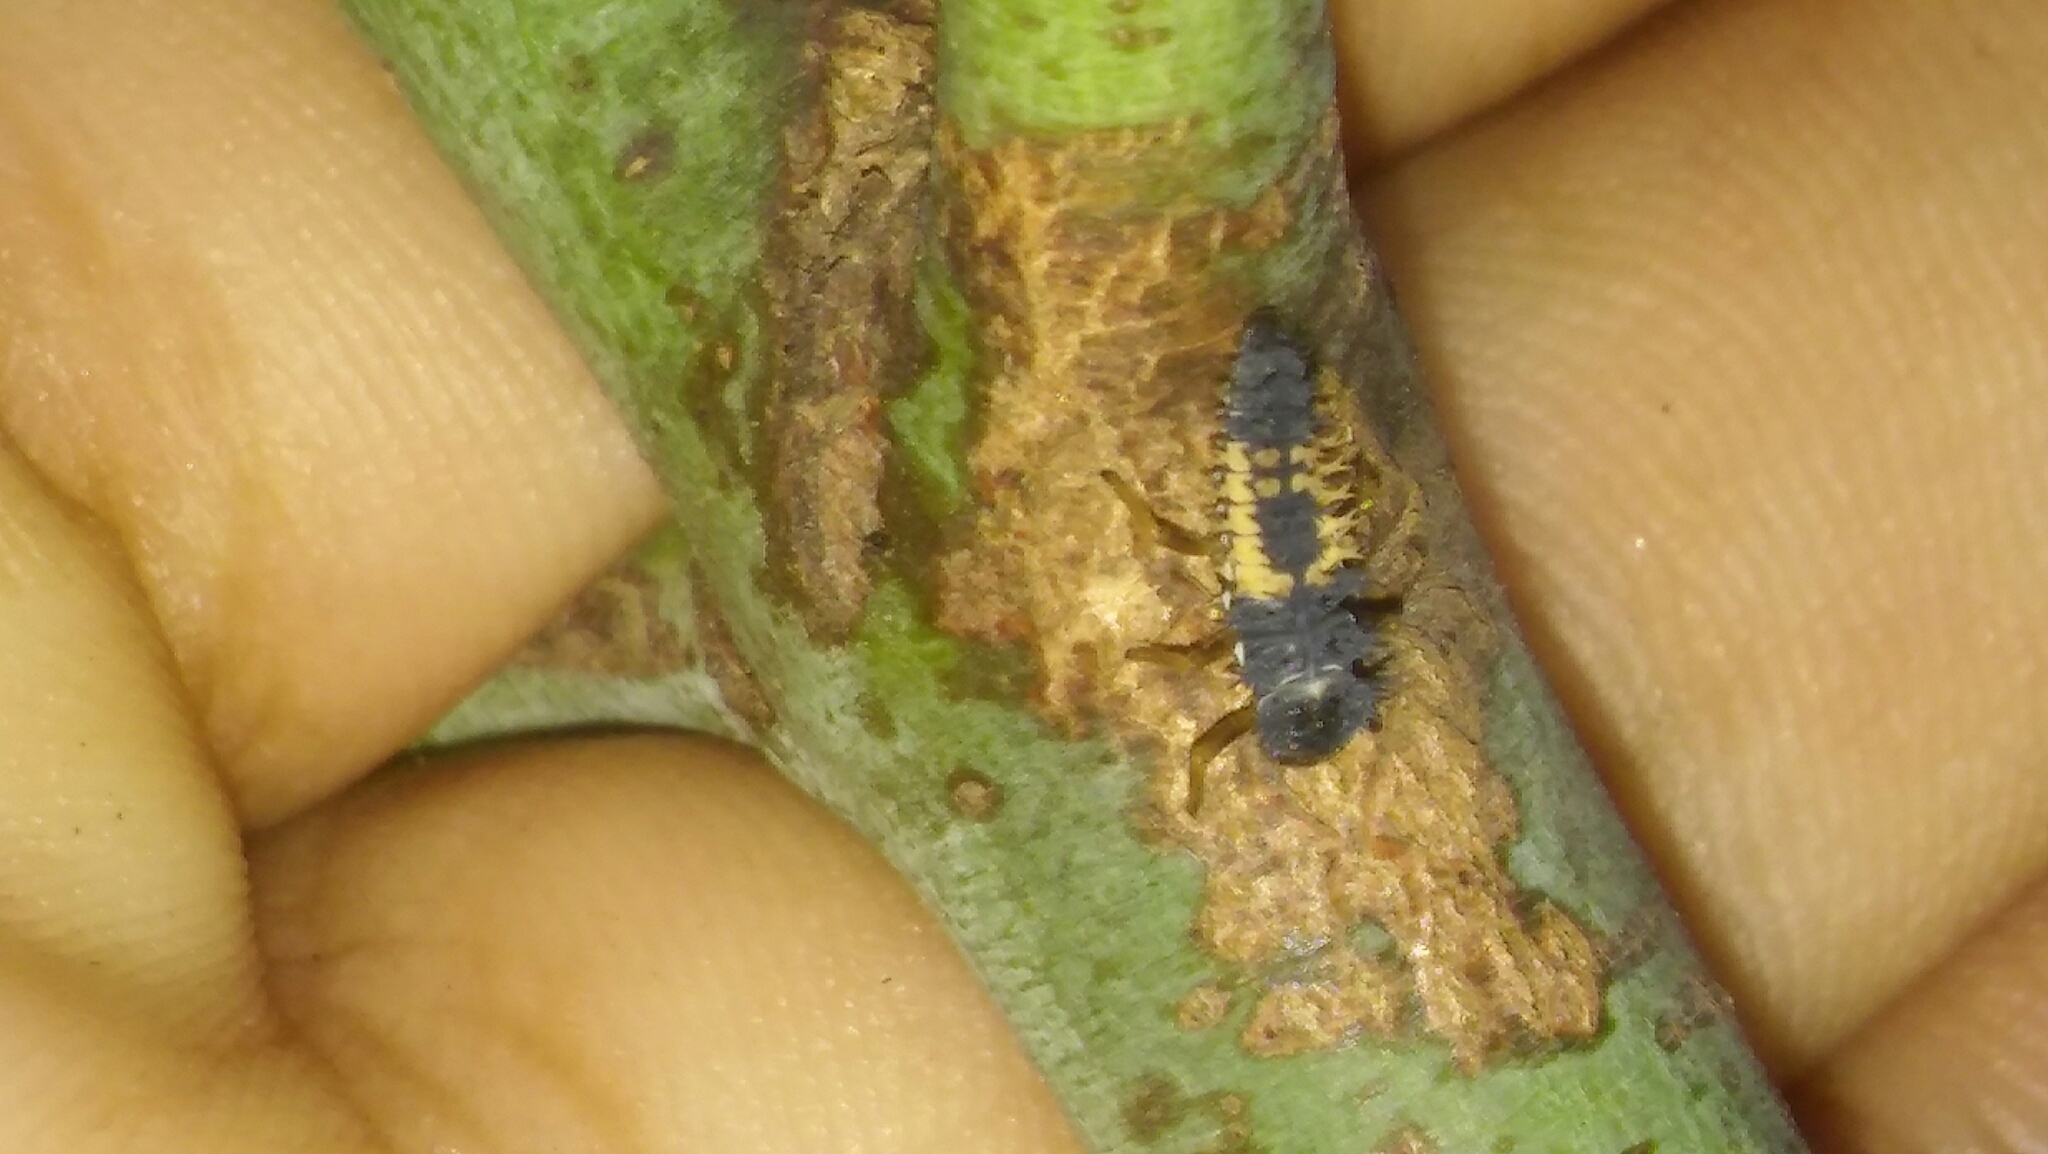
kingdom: Animalia
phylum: Arthropoda
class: Insecta
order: Coleoptera
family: Coccinellidae
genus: Harmonia
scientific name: Harmonia axyridis
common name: Harlequin ladybird
